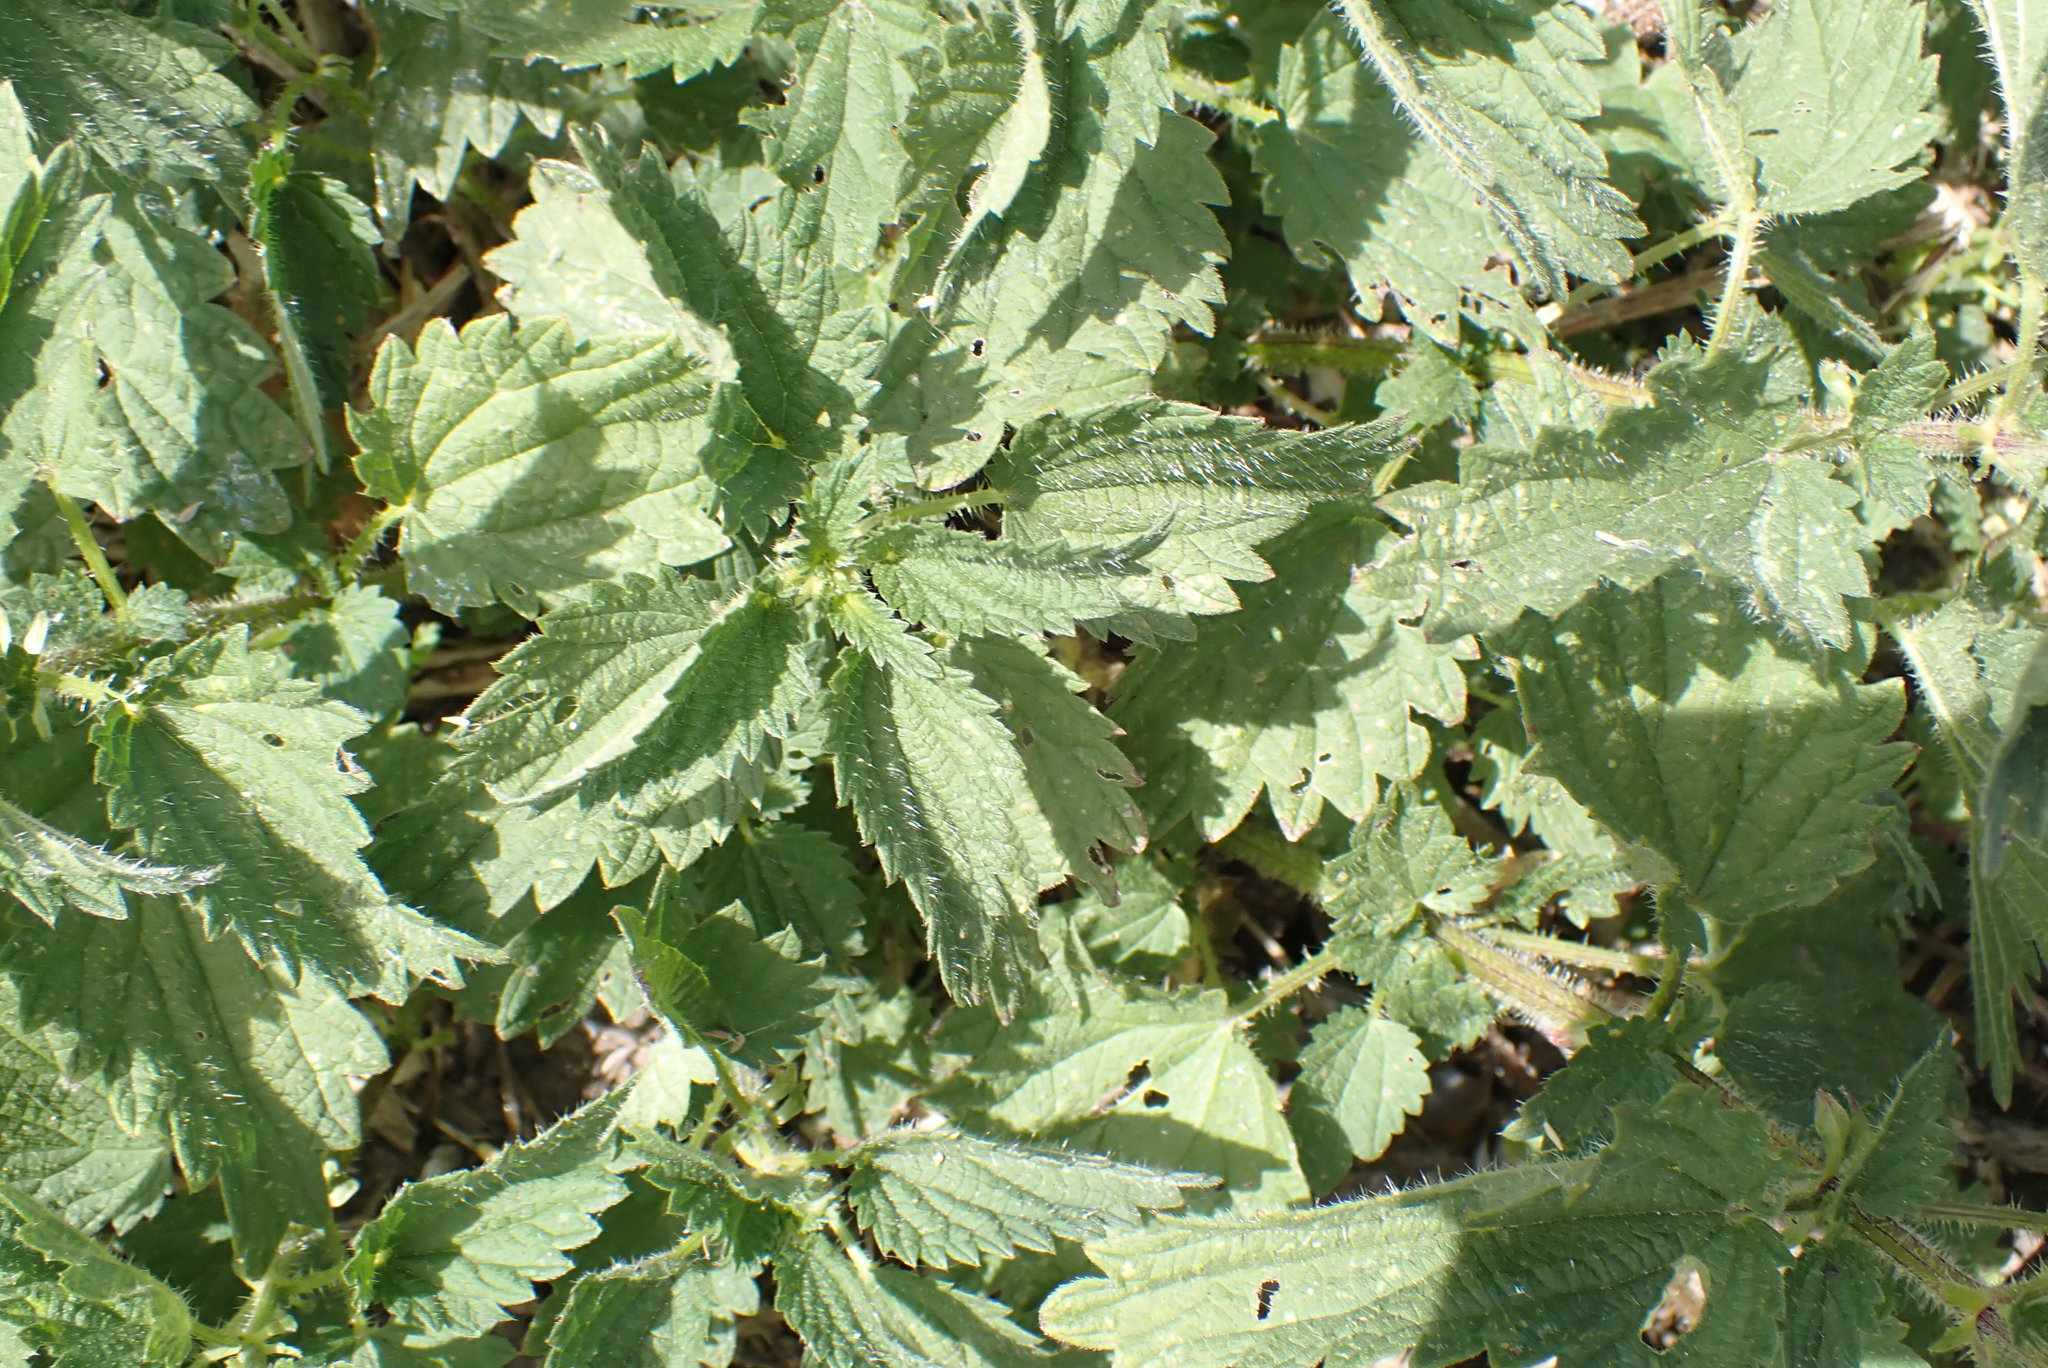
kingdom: Plantae
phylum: Tracheophyta
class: Magnoliopsida
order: Rosales
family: Urticaceae
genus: Urtica
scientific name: Urtica dioica
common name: Common nettle
